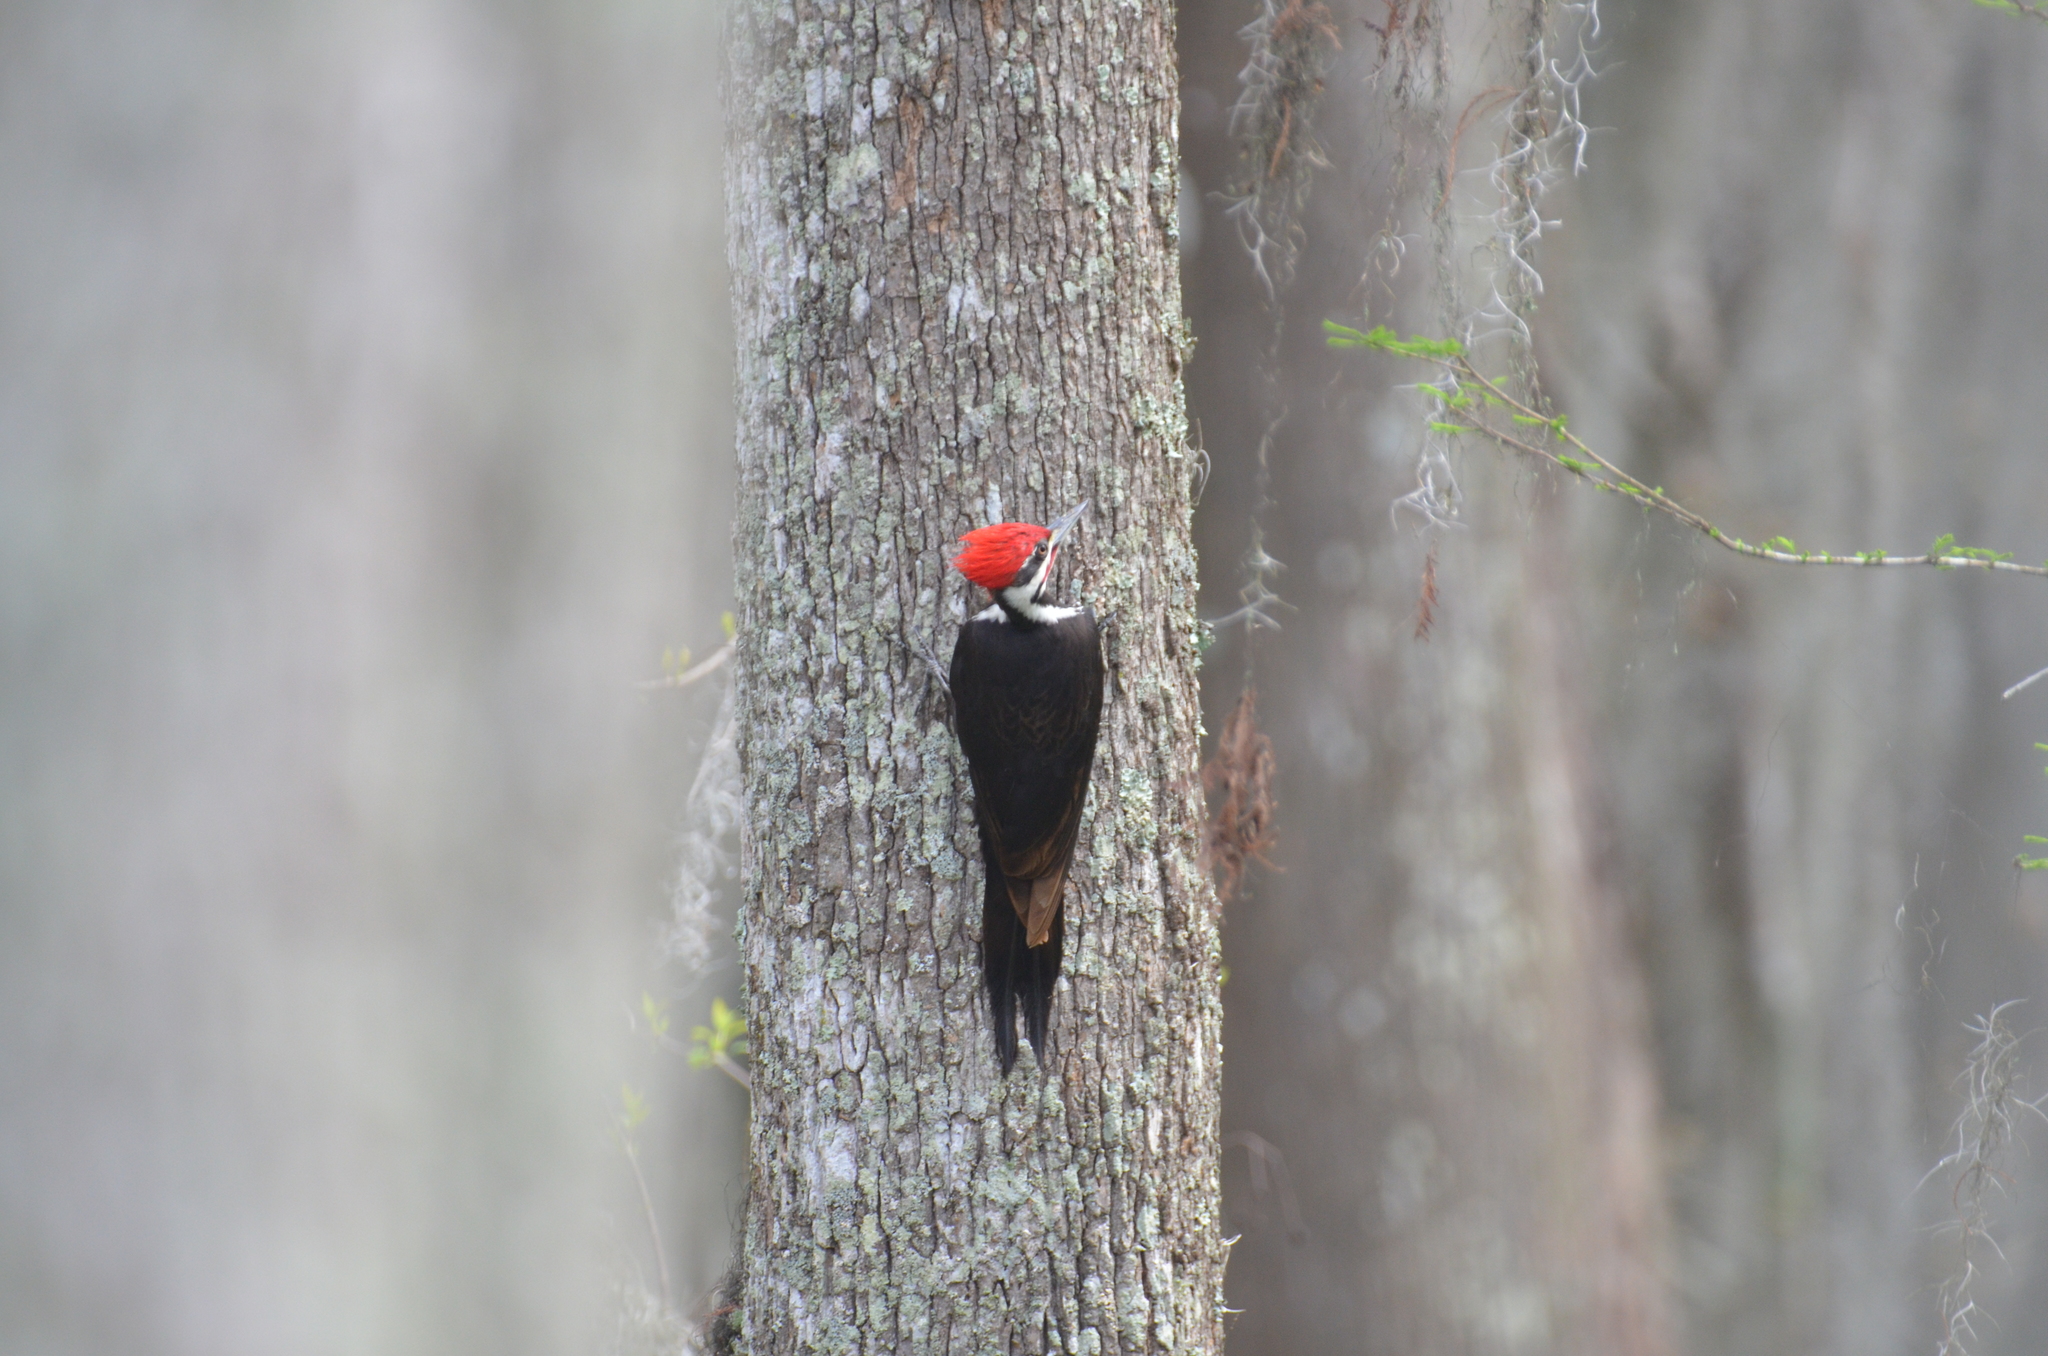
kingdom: Animalia
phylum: Chordata
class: Aves
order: Piciformes
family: Picidae
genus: Dryocopus
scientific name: Dryocopus pileatus
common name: Pileated woodpecker
